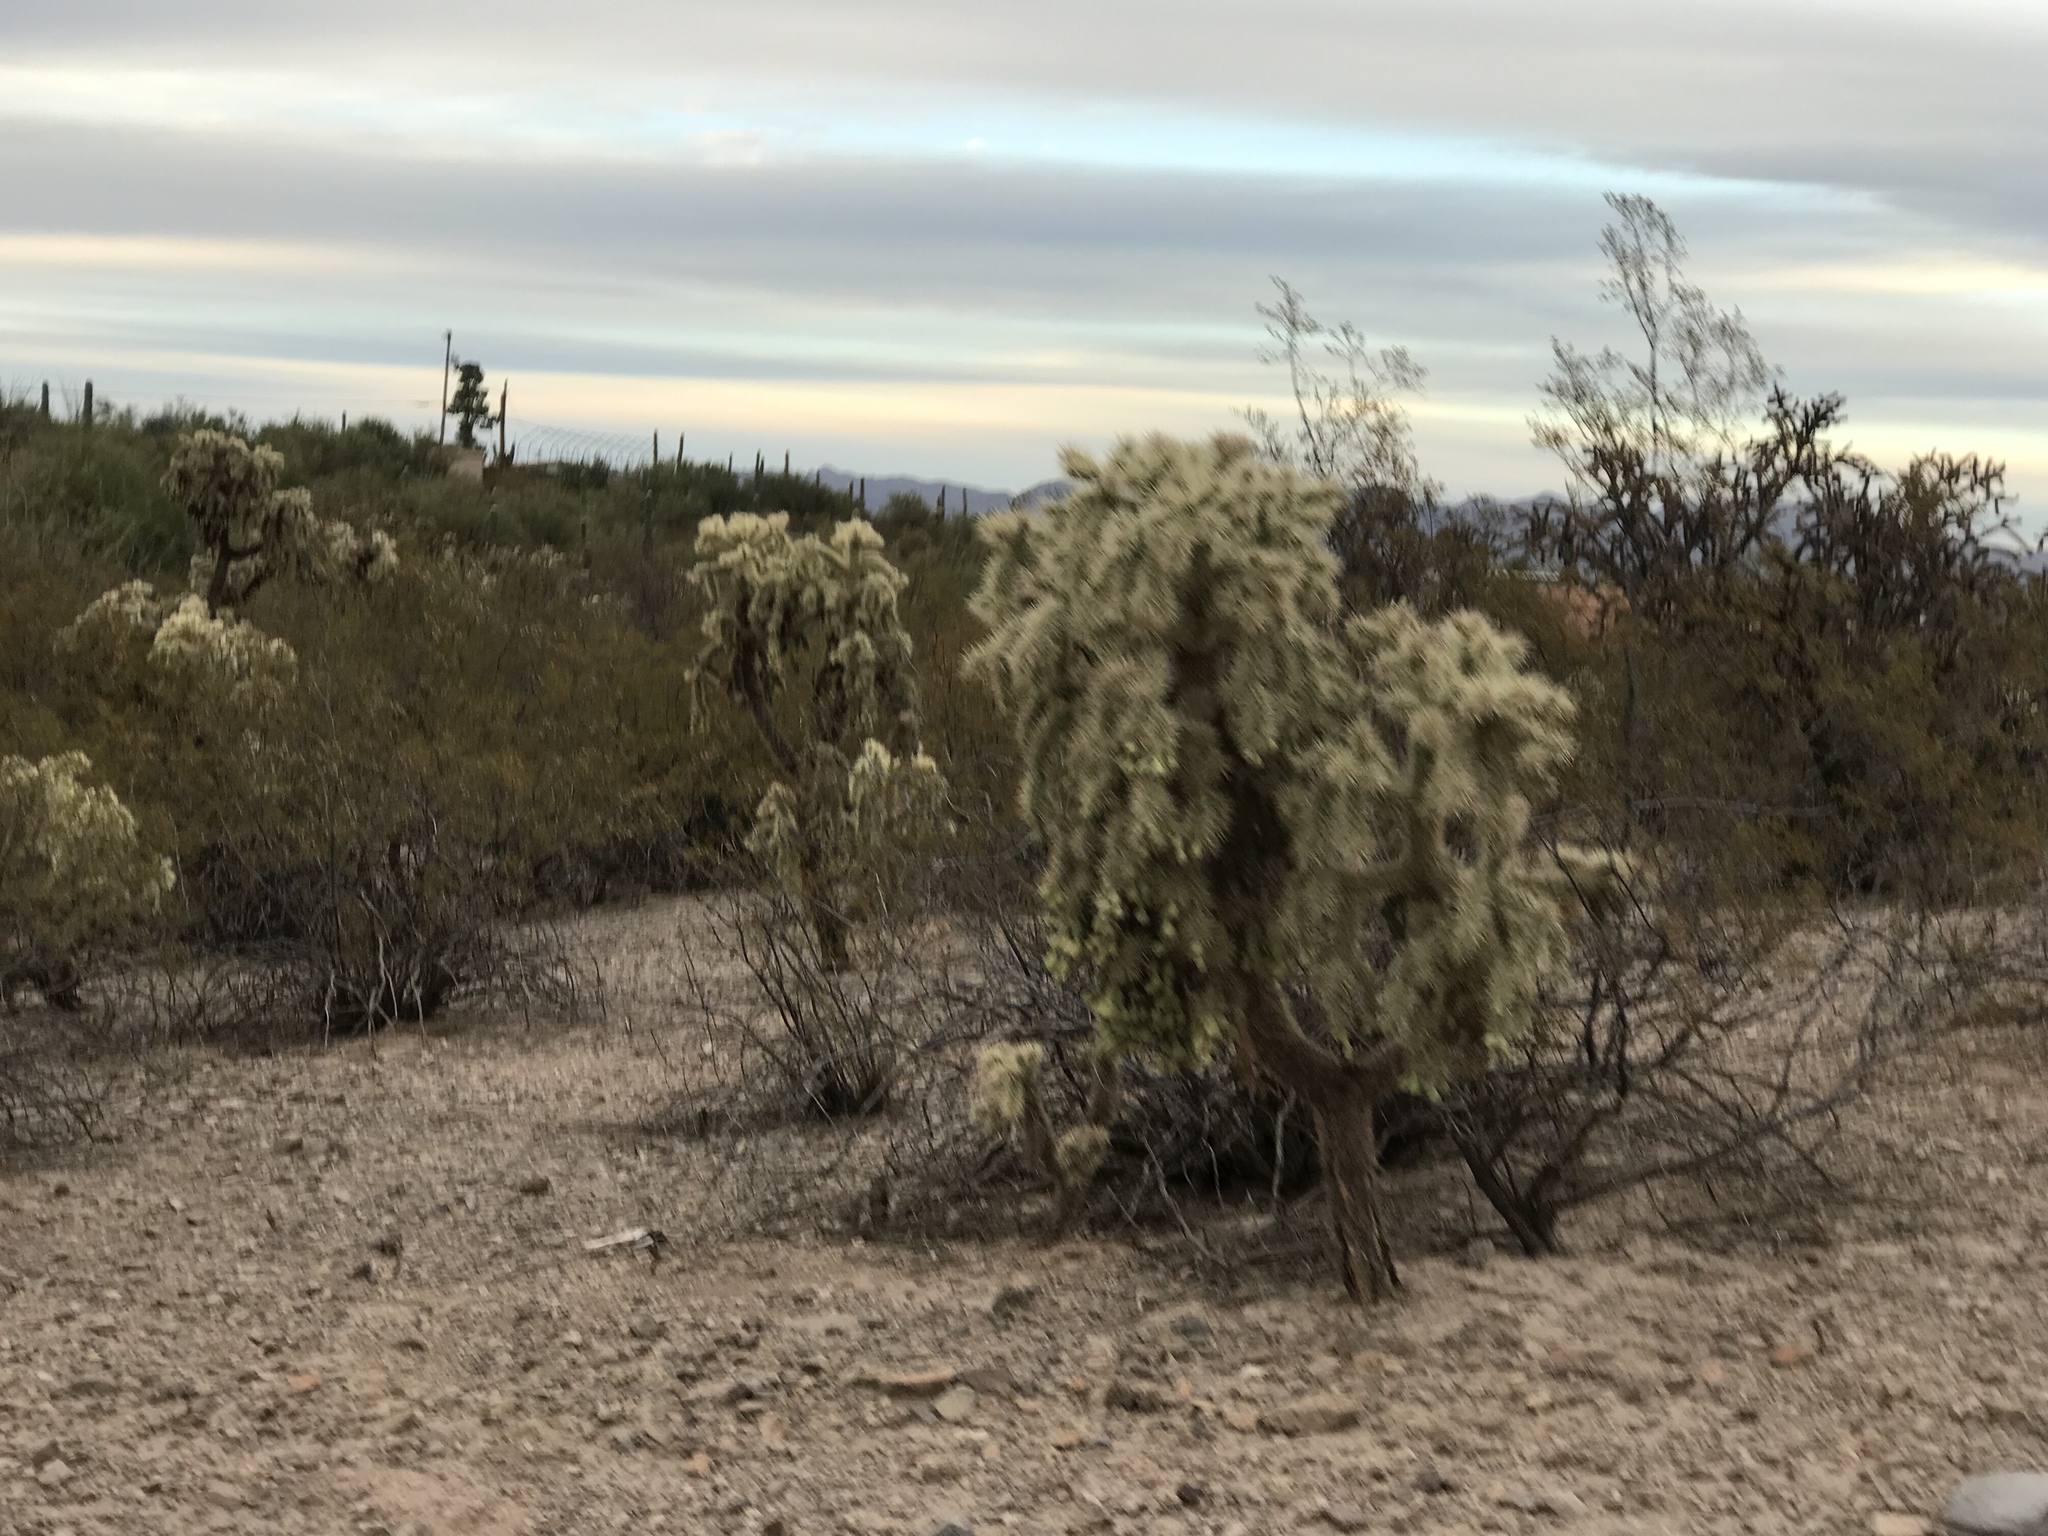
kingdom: Plantae
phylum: Tracheophyta
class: Magnoliopsida
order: Caryophyllales
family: Cactaceae
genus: Cylindropuntia
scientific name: Cylindropuntia fulgida
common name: Jumping cholla
